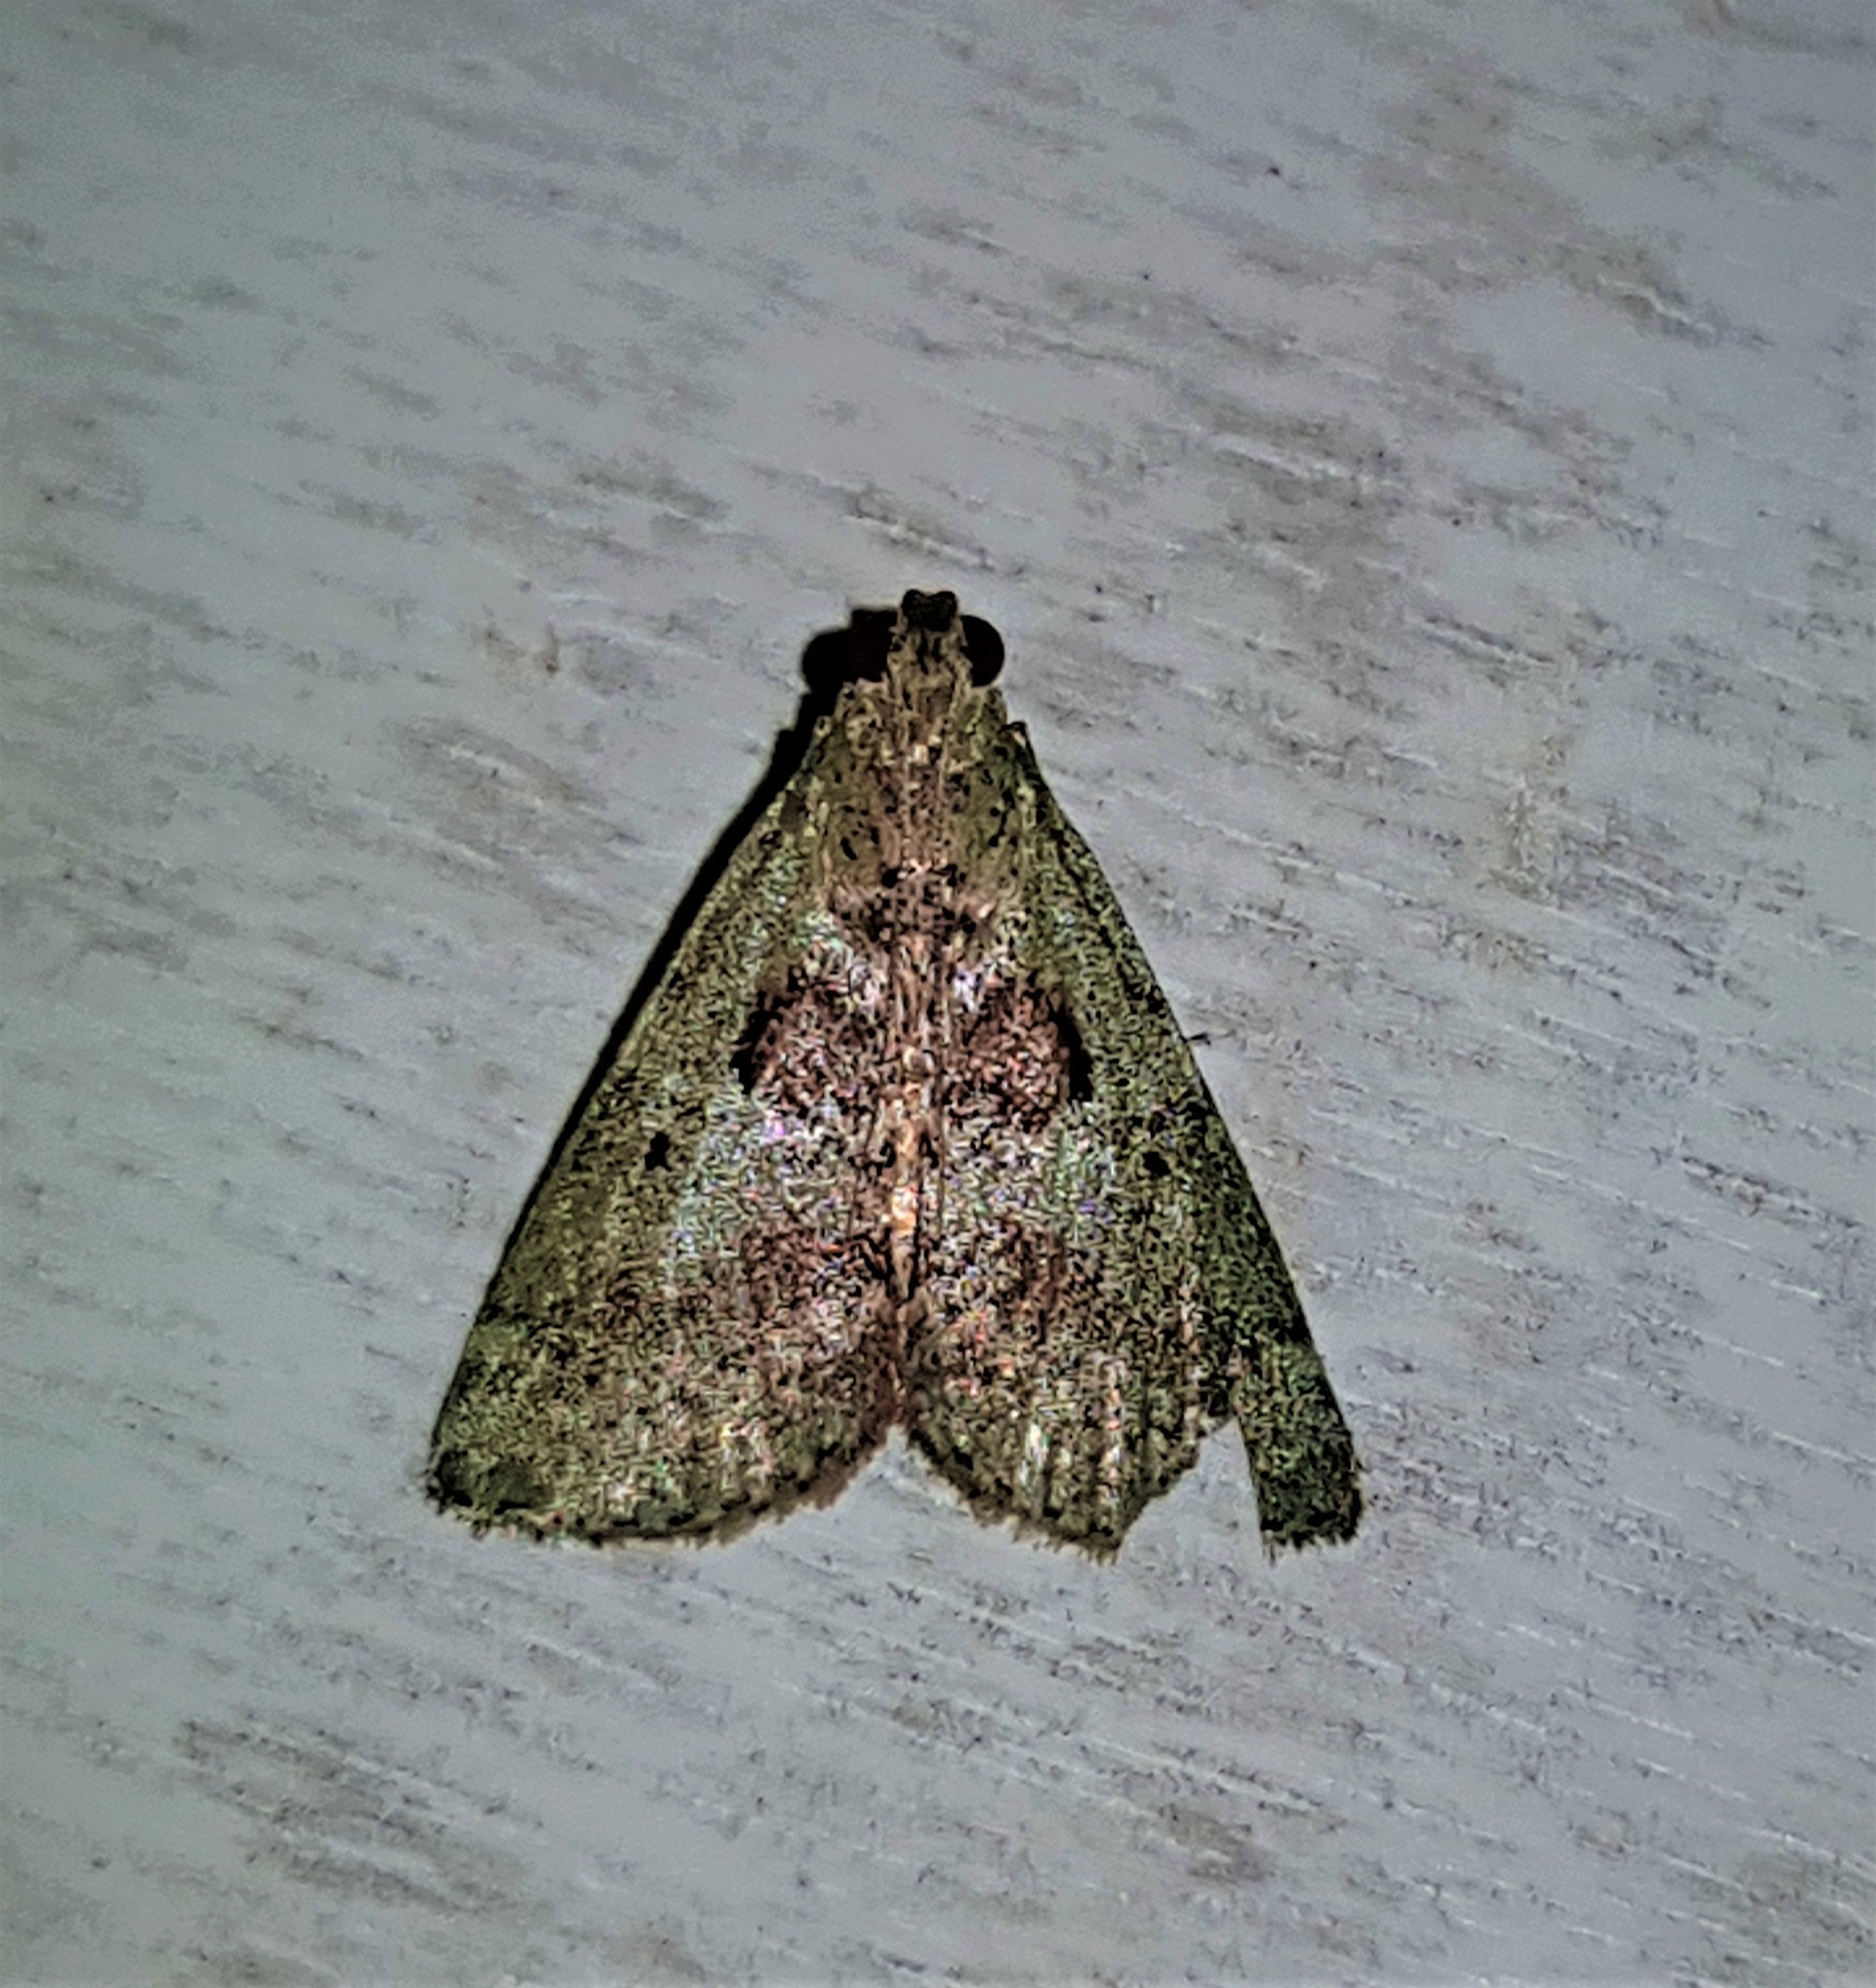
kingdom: Animalia
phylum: Arthropoda
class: Insecta
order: Lepidoptera
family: Pyralidae
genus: Deuterollyta
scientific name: Deuterollyta zetila
